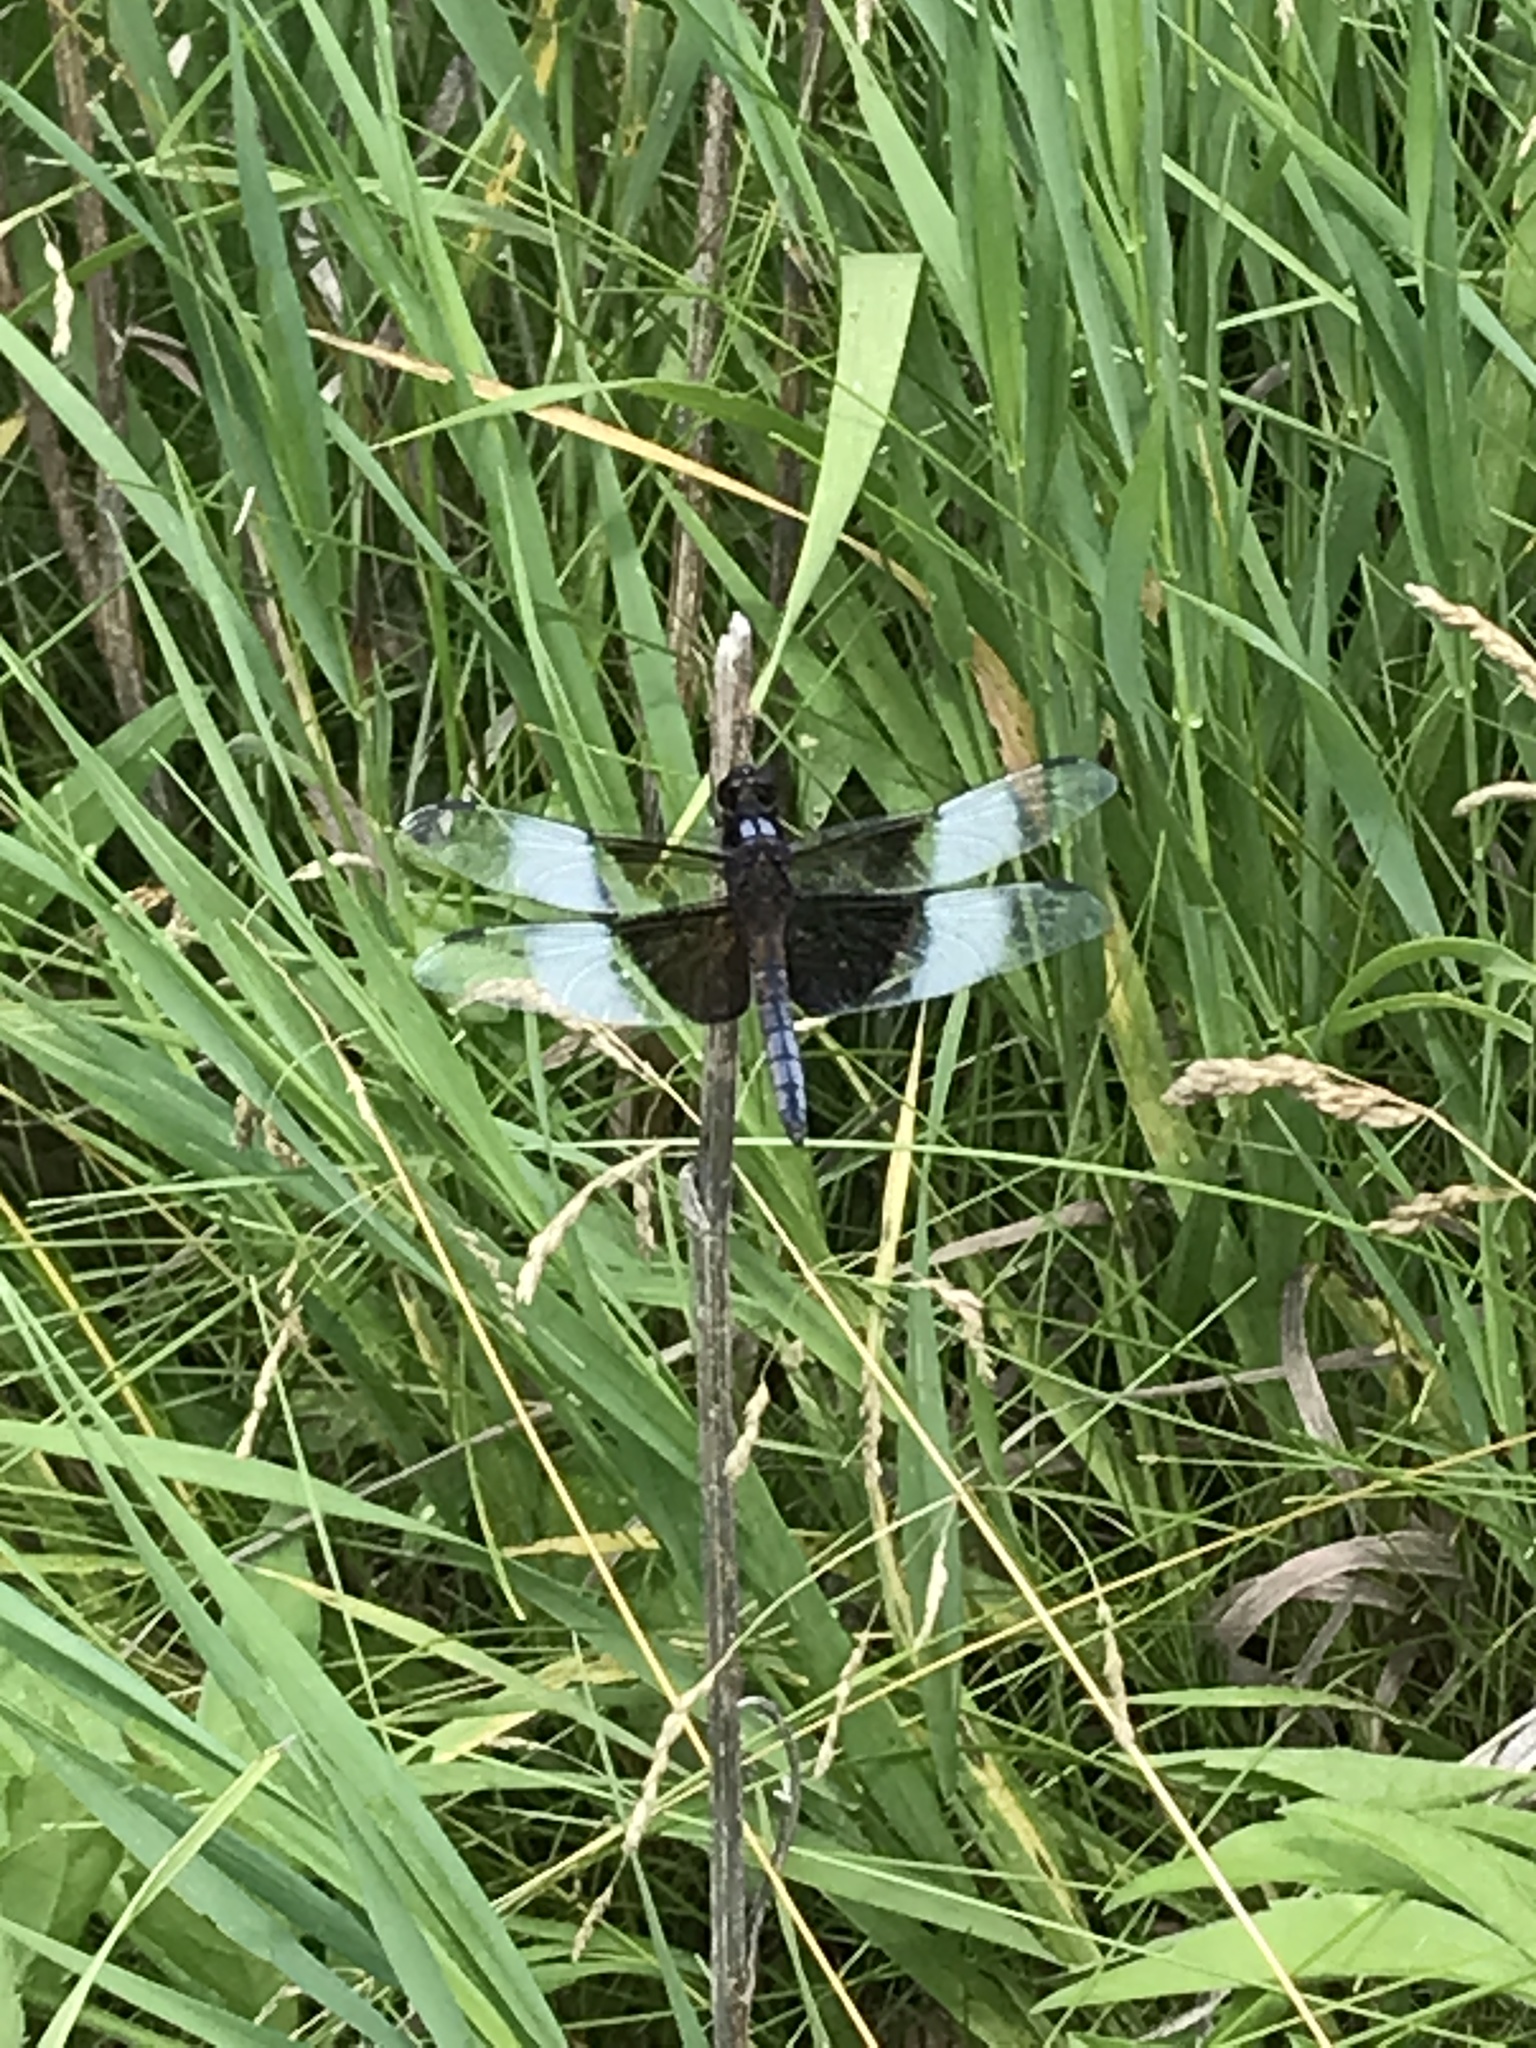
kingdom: Animalia
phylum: Arthropoda
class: Insecta
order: Odonata
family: Libellulidae
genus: Libellula
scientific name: Libellula luctuosa
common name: Widow skimmer
